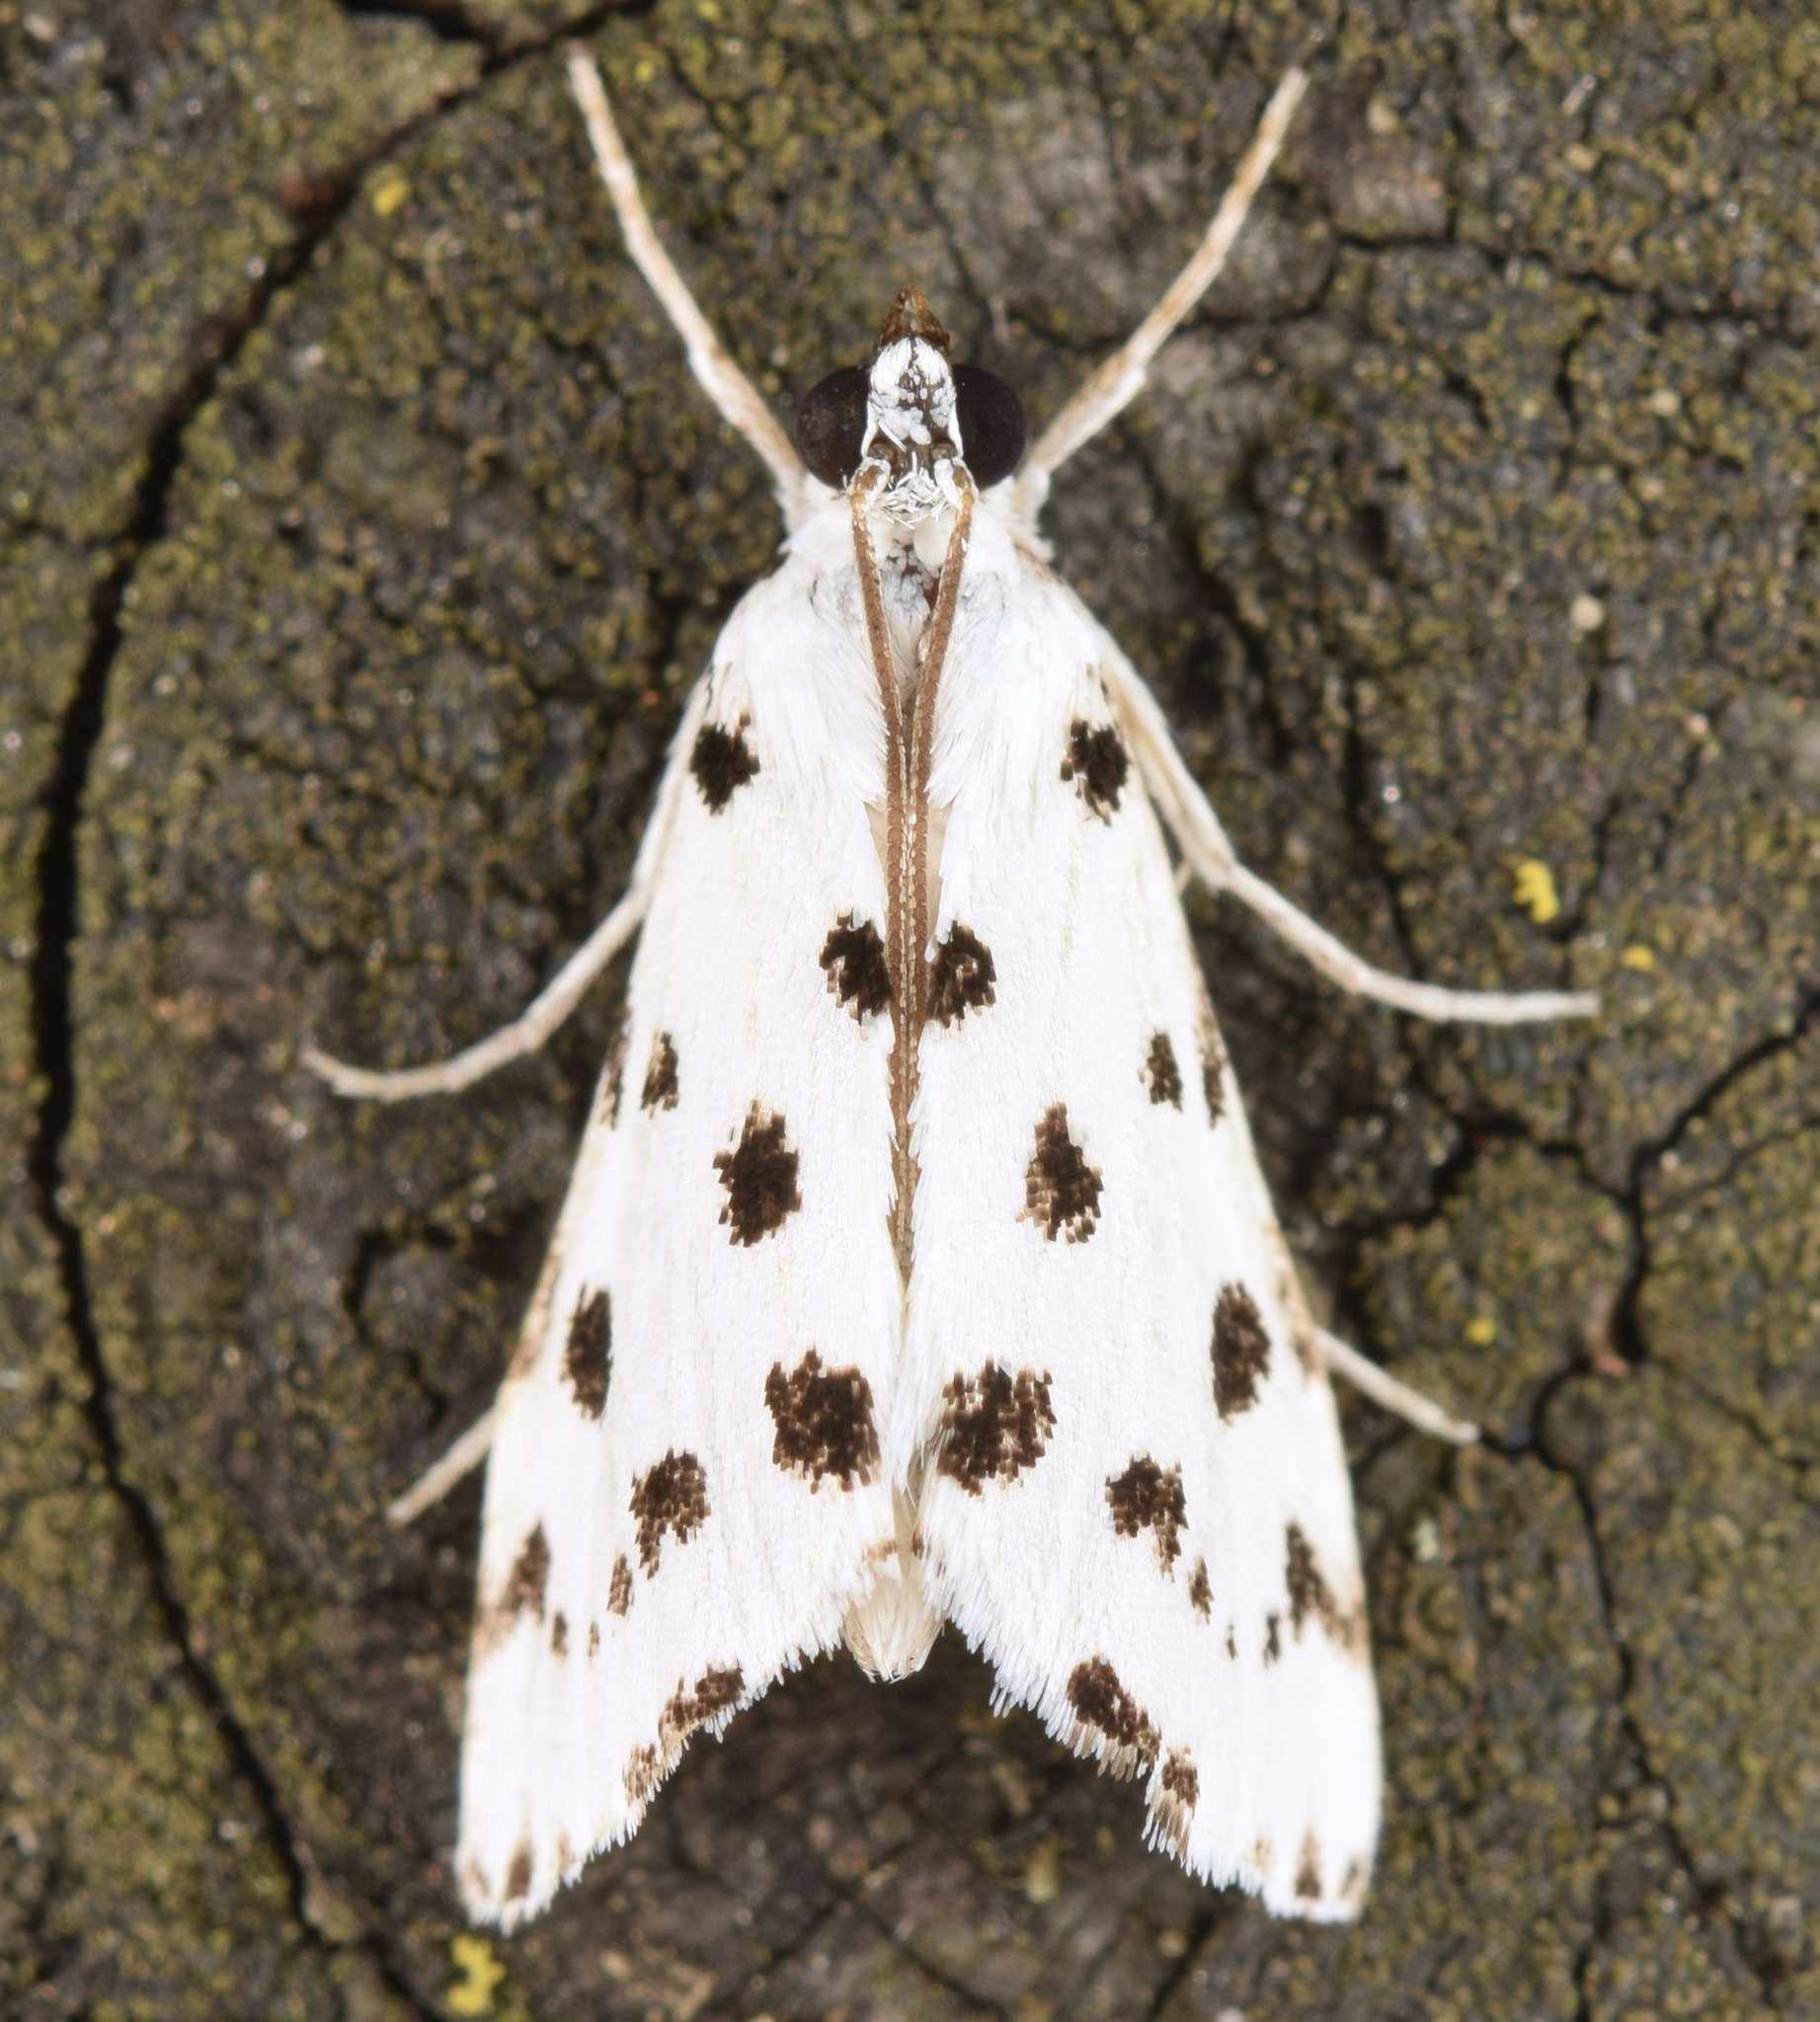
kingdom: Animalia
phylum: Arthropoda
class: Insecta
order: Lepidoptera
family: Crambidae
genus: Eustixia
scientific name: Eustixia pupula
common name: American cabbage pearl
